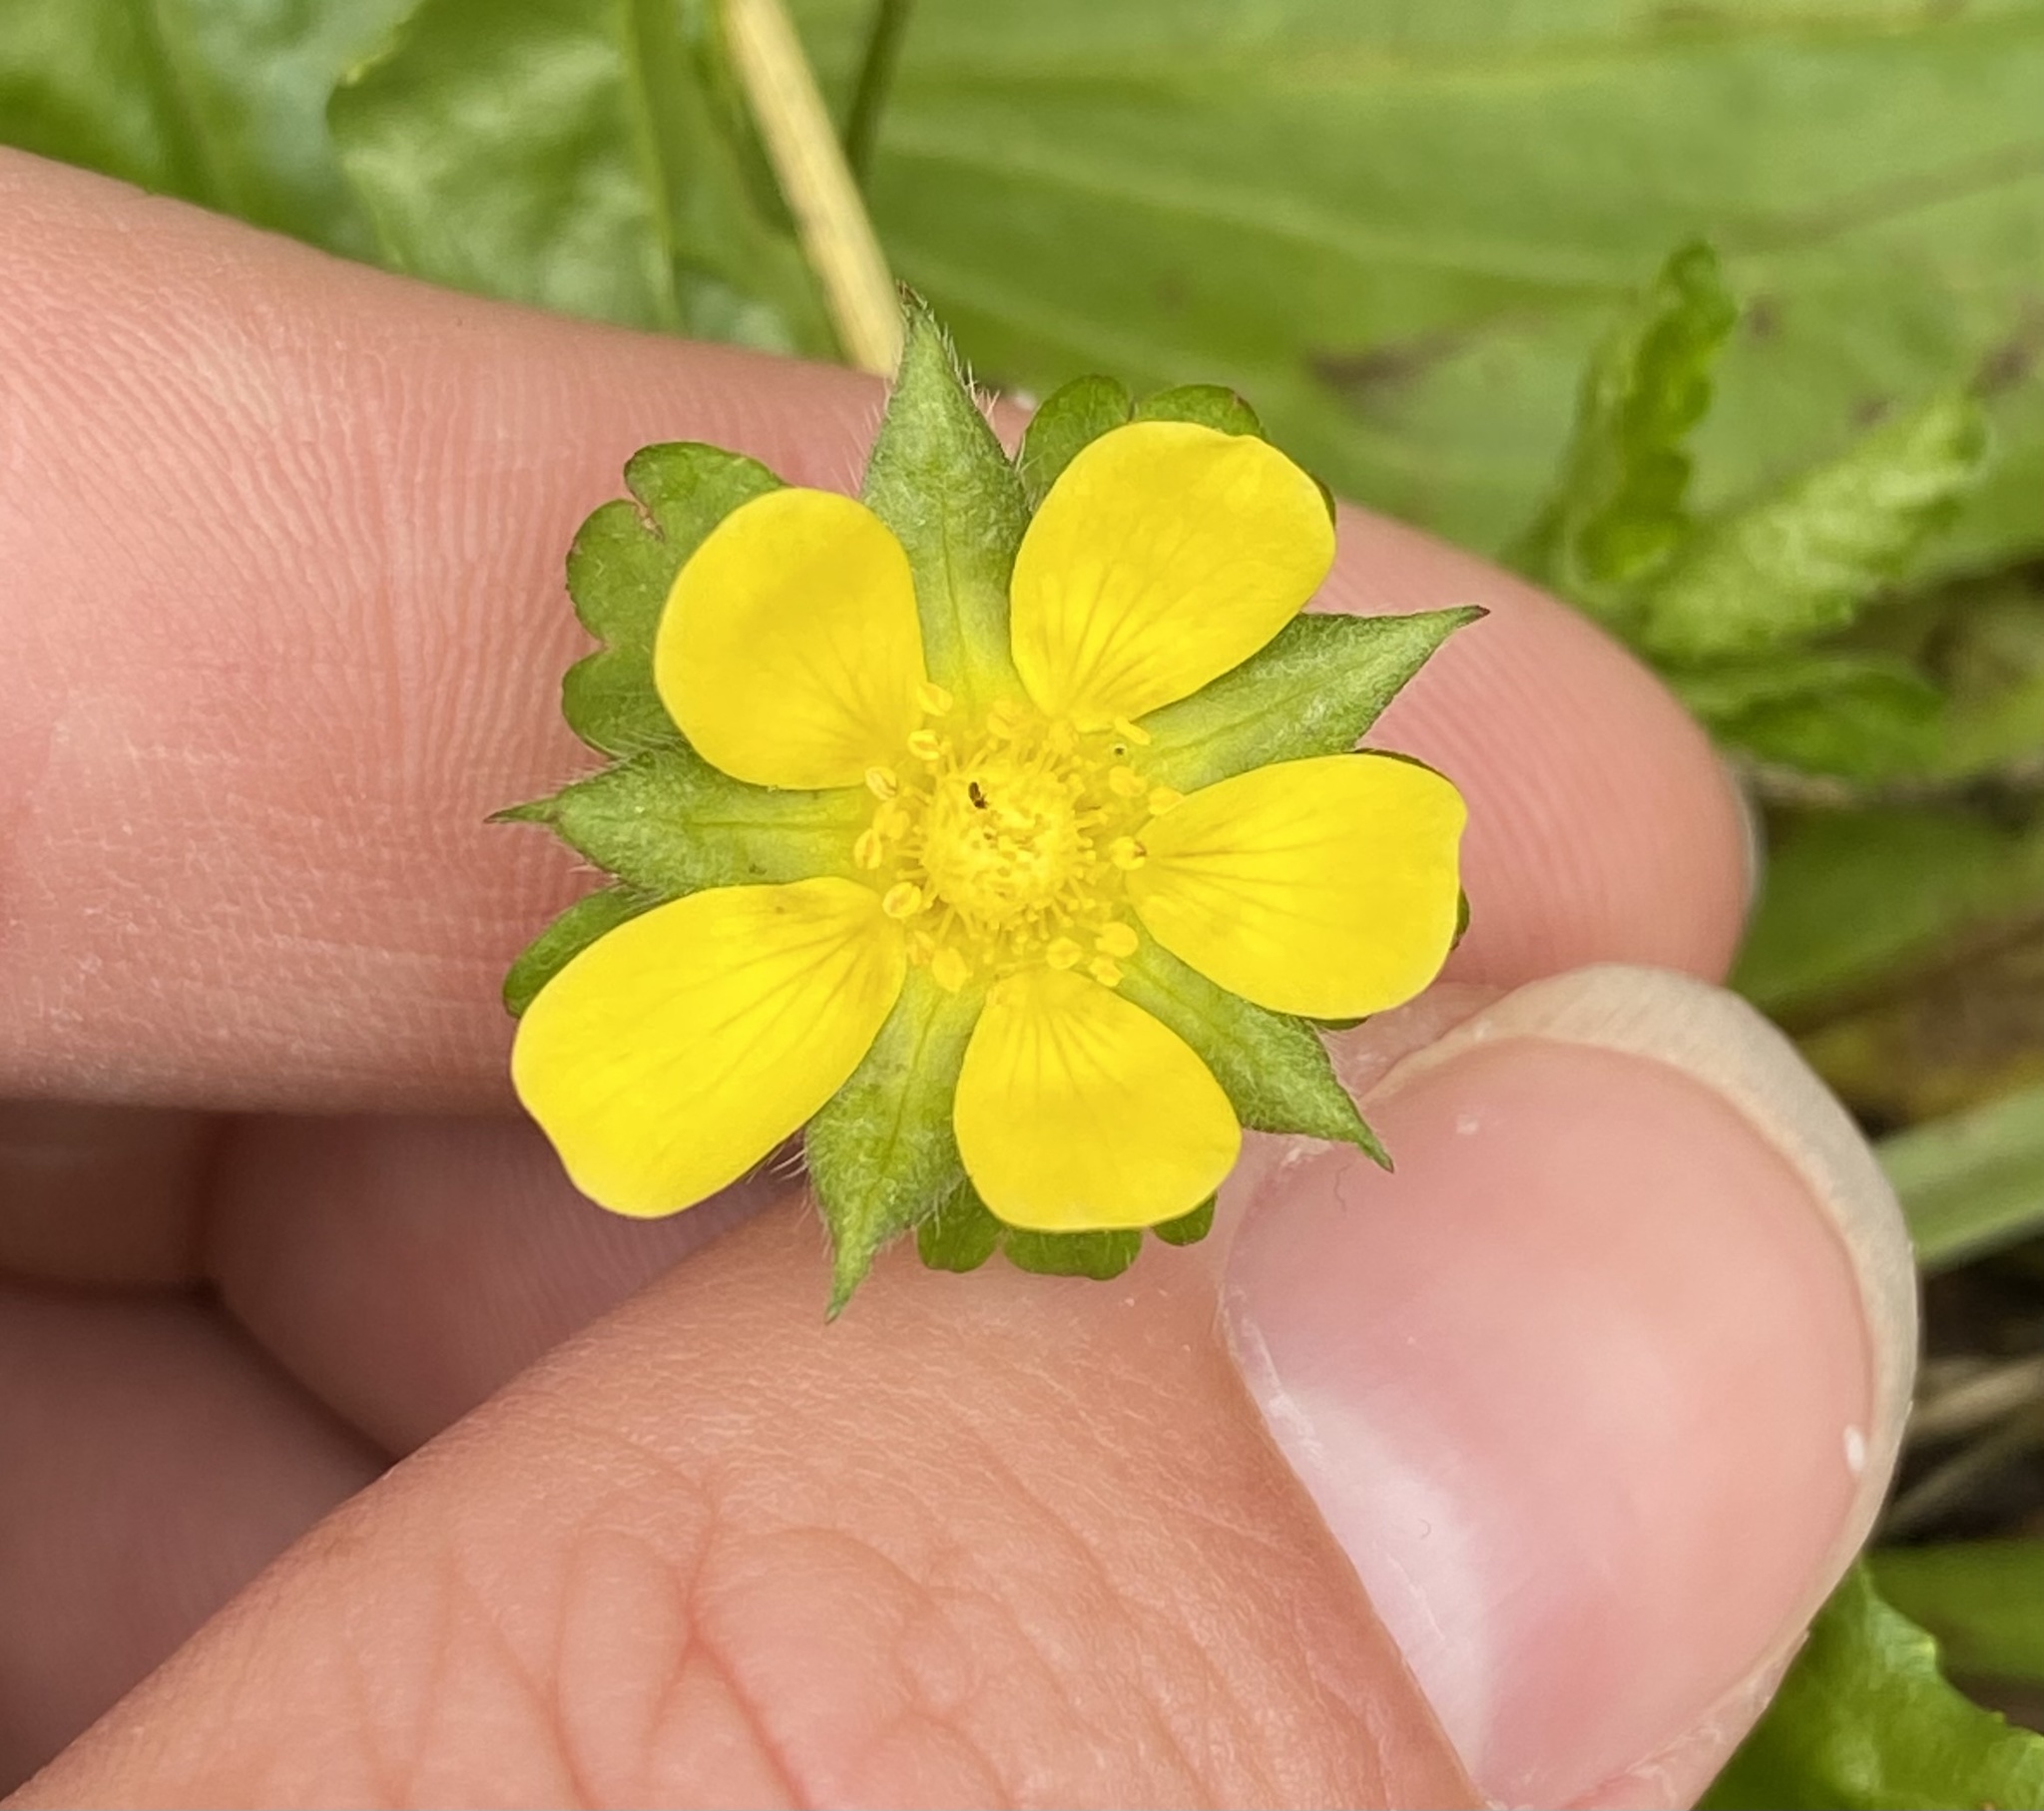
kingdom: Plantae
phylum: Tracheophyta
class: Magnoliopsida
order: Rosales
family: Rosaceae
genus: Potentilla
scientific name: Potentilla indica
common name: Yellow-flowered strawberry
